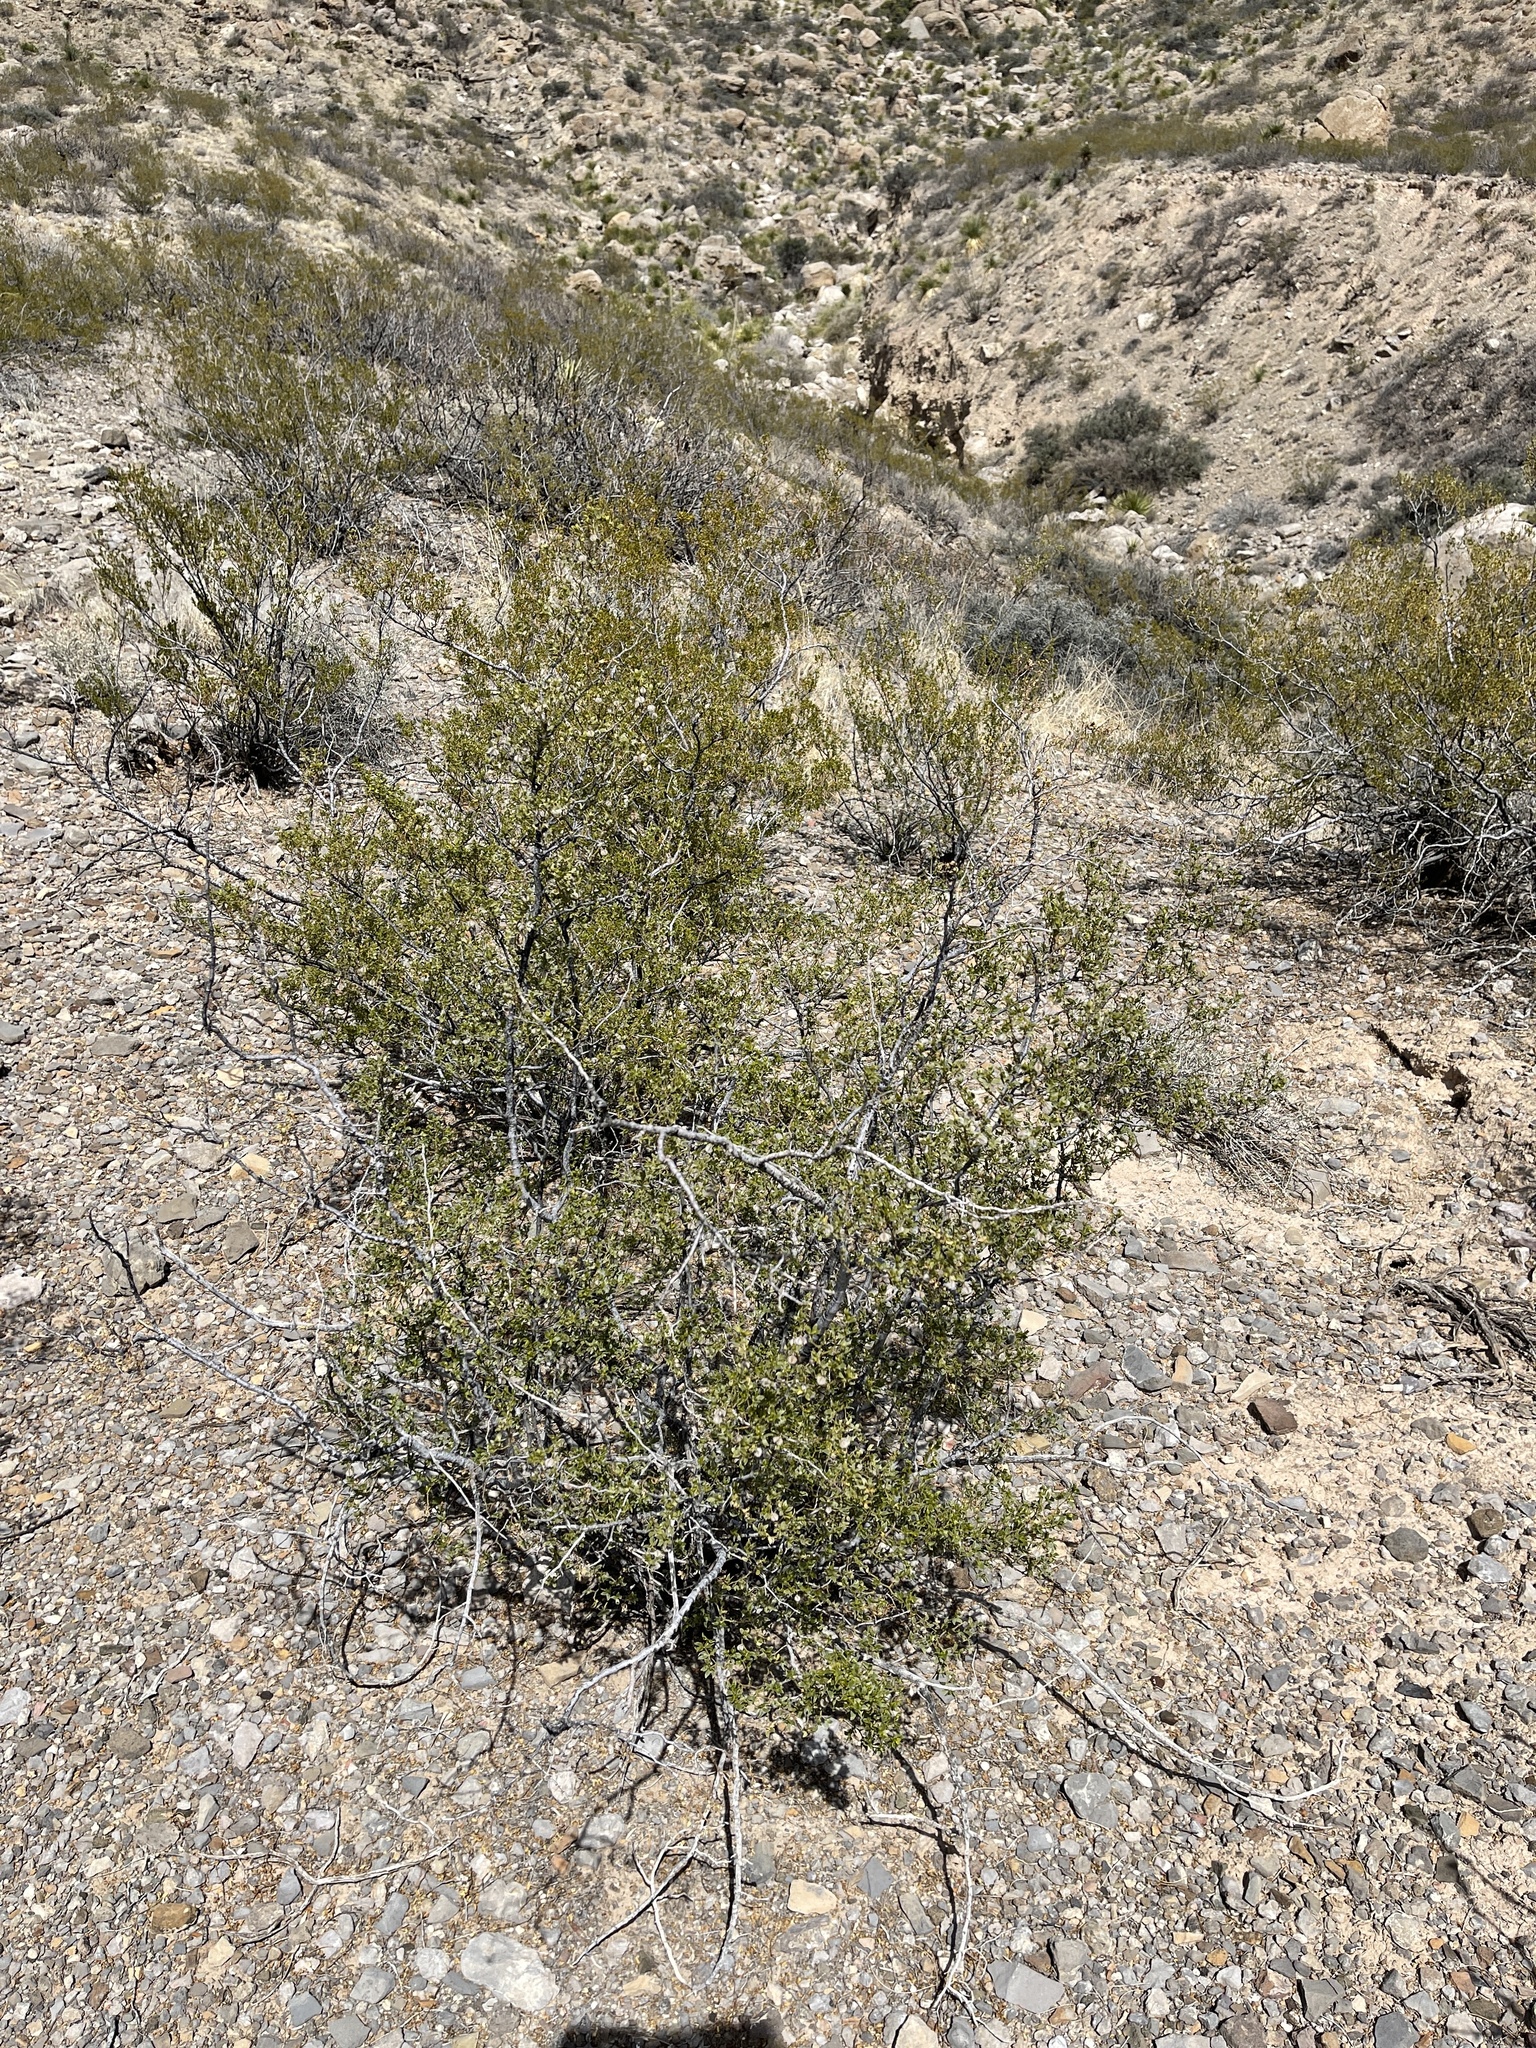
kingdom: Plantae
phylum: Tracheophyta
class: Magnoliopsida
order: Zygophyllales
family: Zygophyllaceae
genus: Larrea
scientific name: Larrea tridentata
